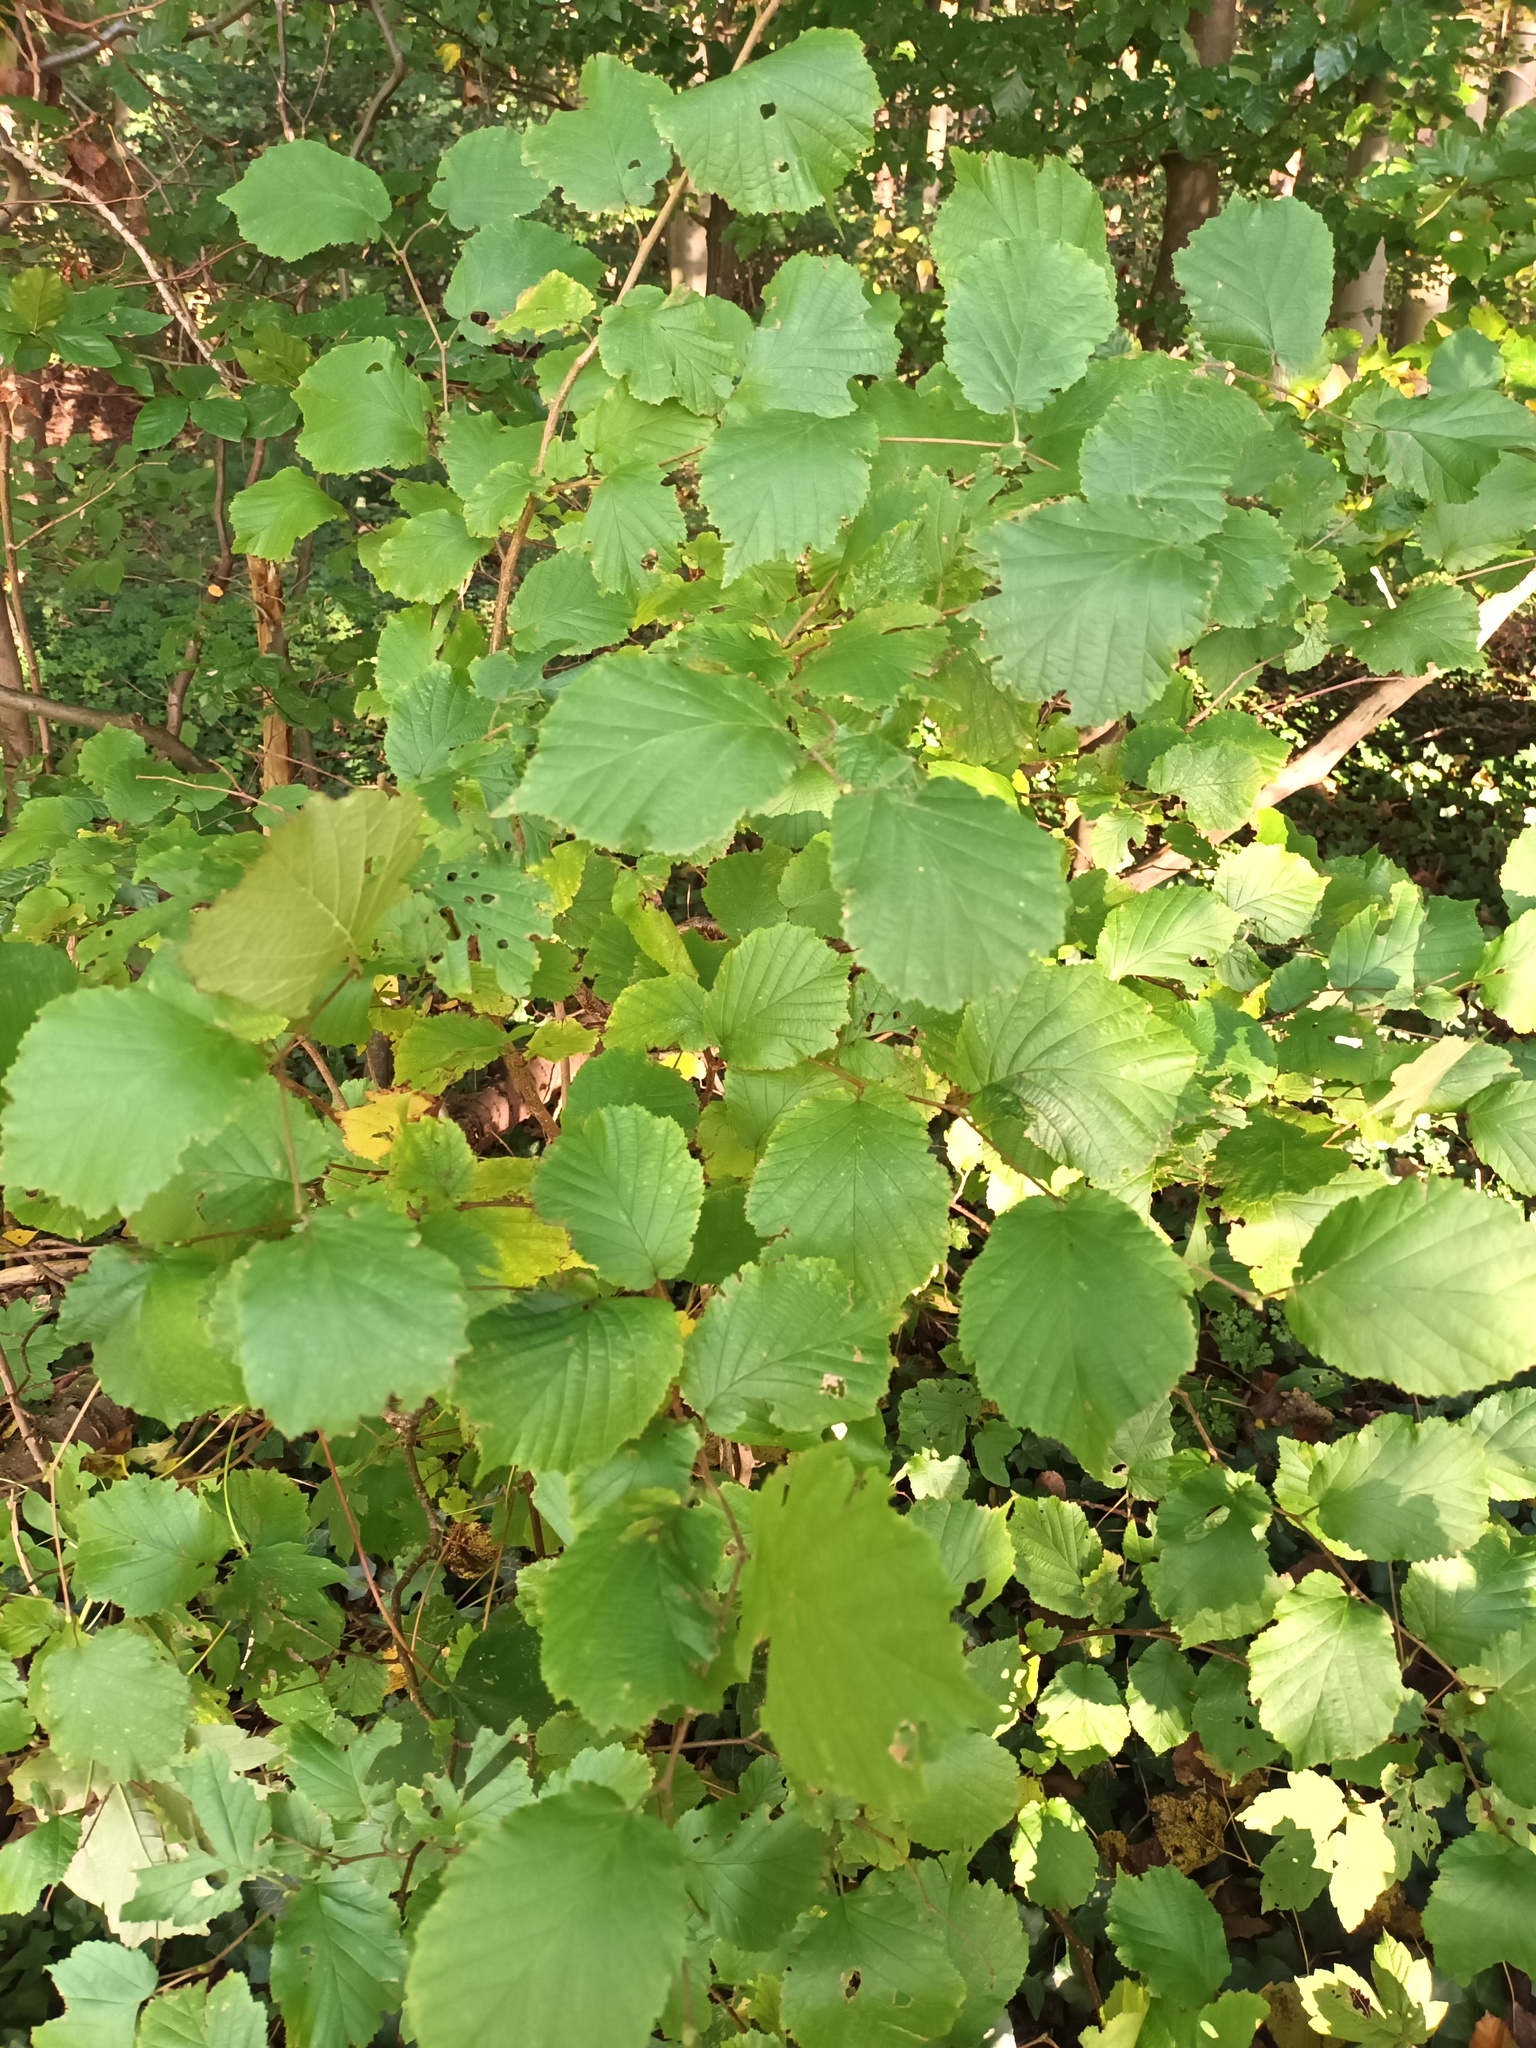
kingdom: Plantae
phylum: Tracheophyta
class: Magnoliopsida
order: Fagales
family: Betulaceae
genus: Corylus
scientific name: Corylus avellana
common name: European hazel
